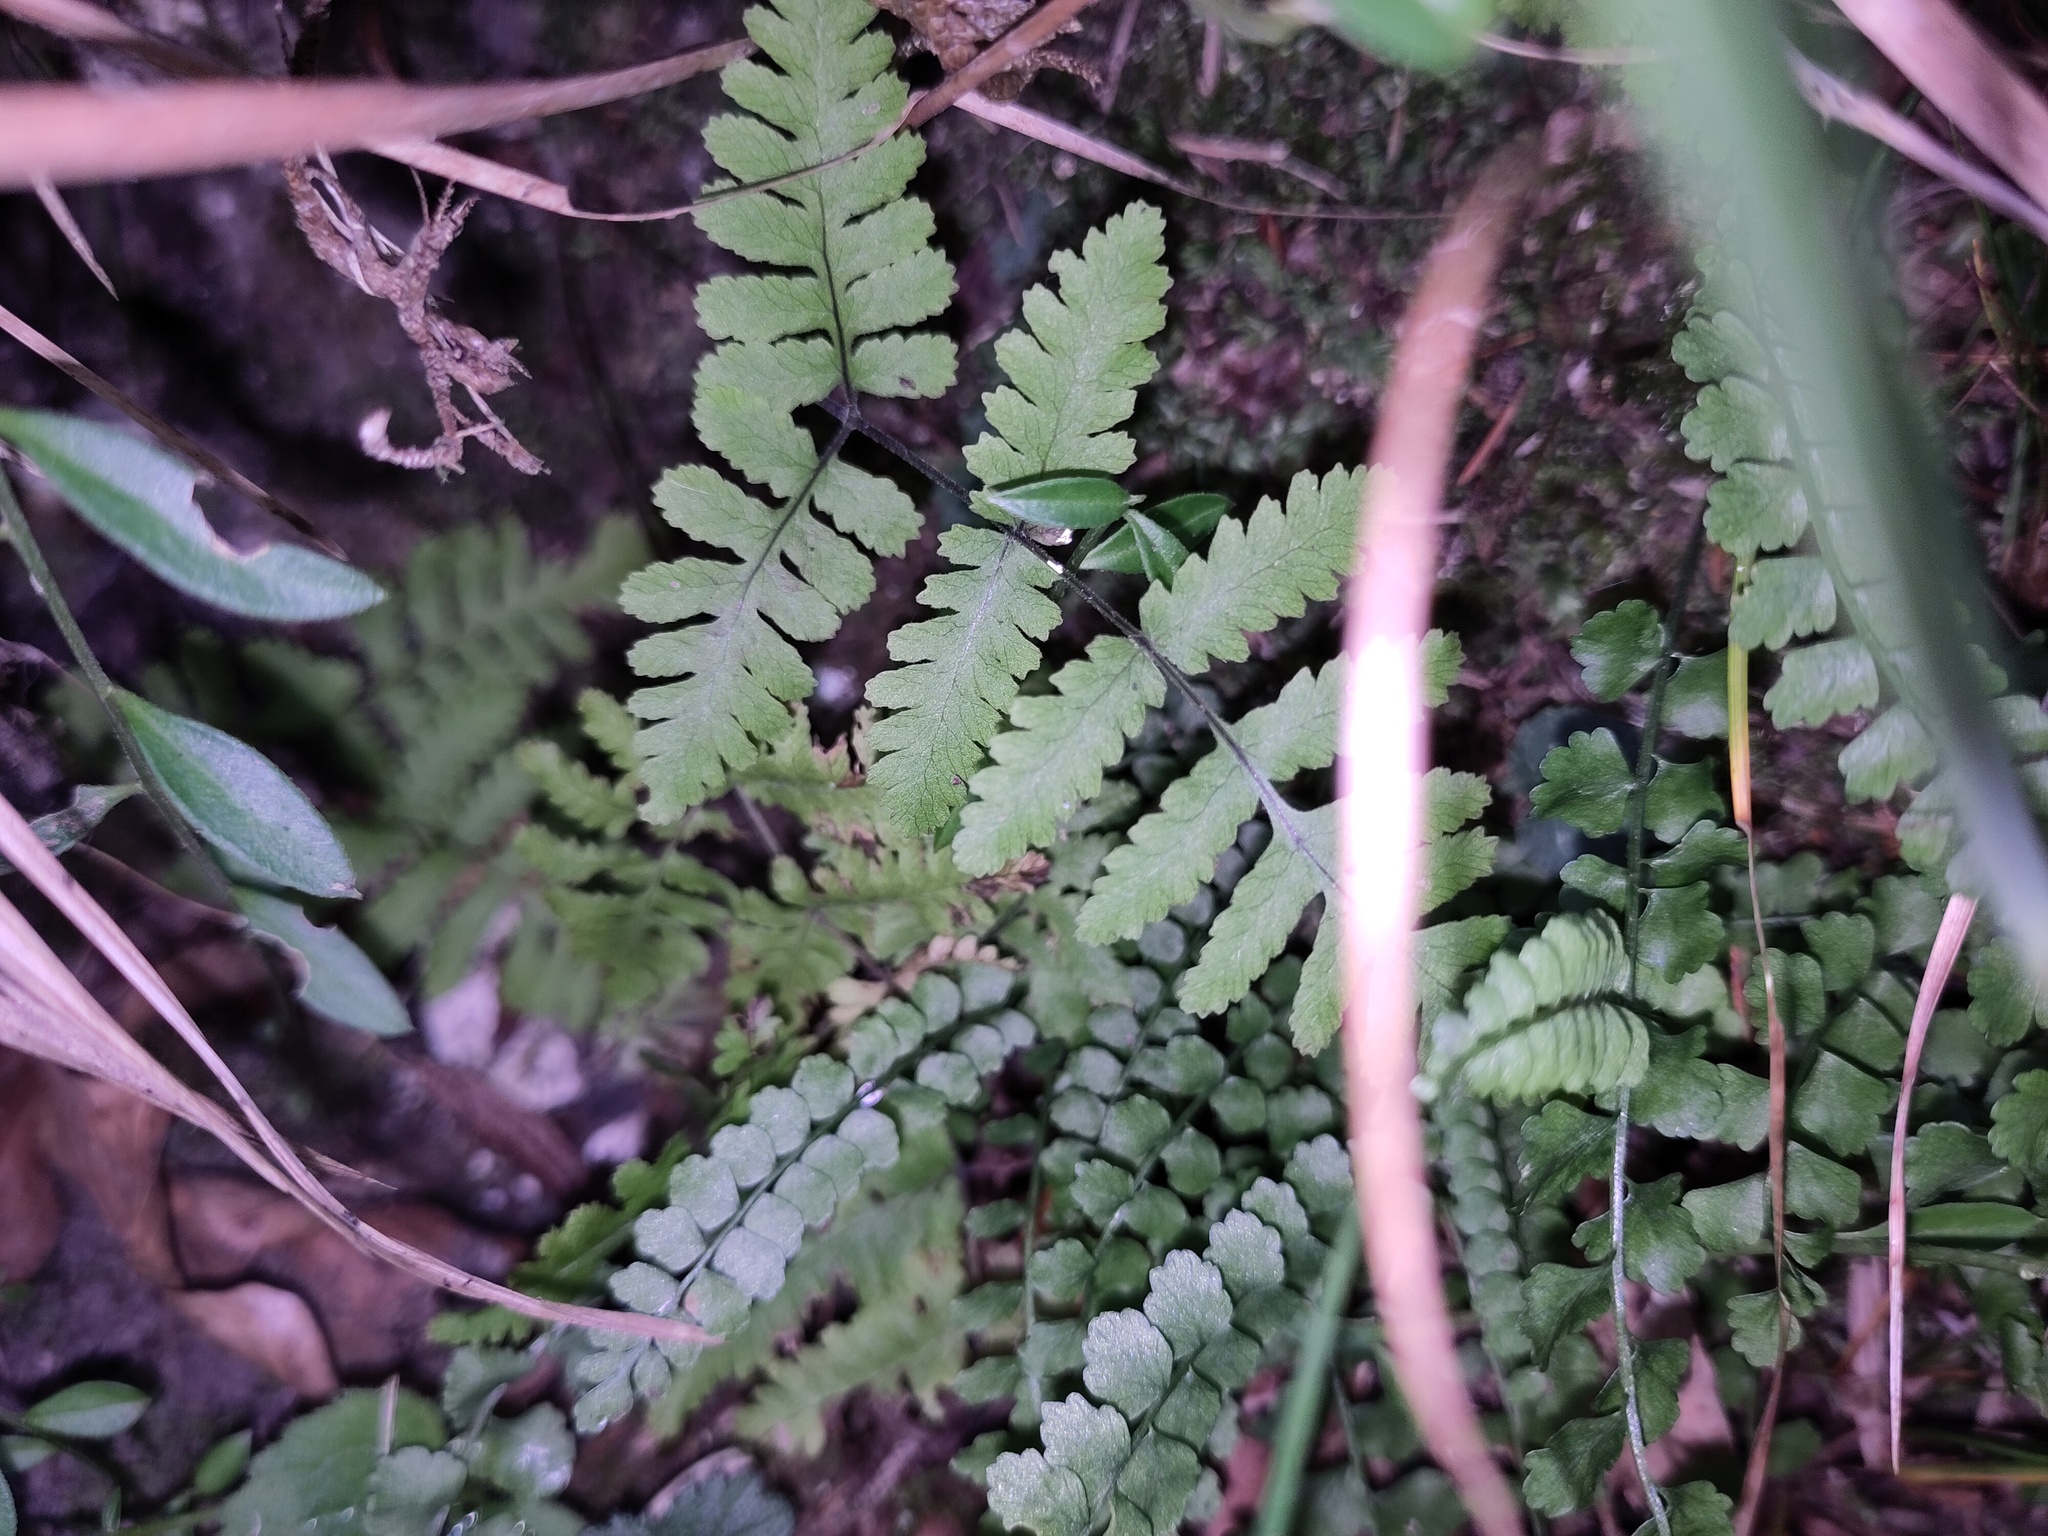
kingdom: Plantae
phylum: Tracheophyta
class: Polypodiopsida
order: Polypodiales
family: Cystopteridaceae
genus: Gymnocarpium
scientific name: Gymnocarpium robertianum
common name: Limestone fern
